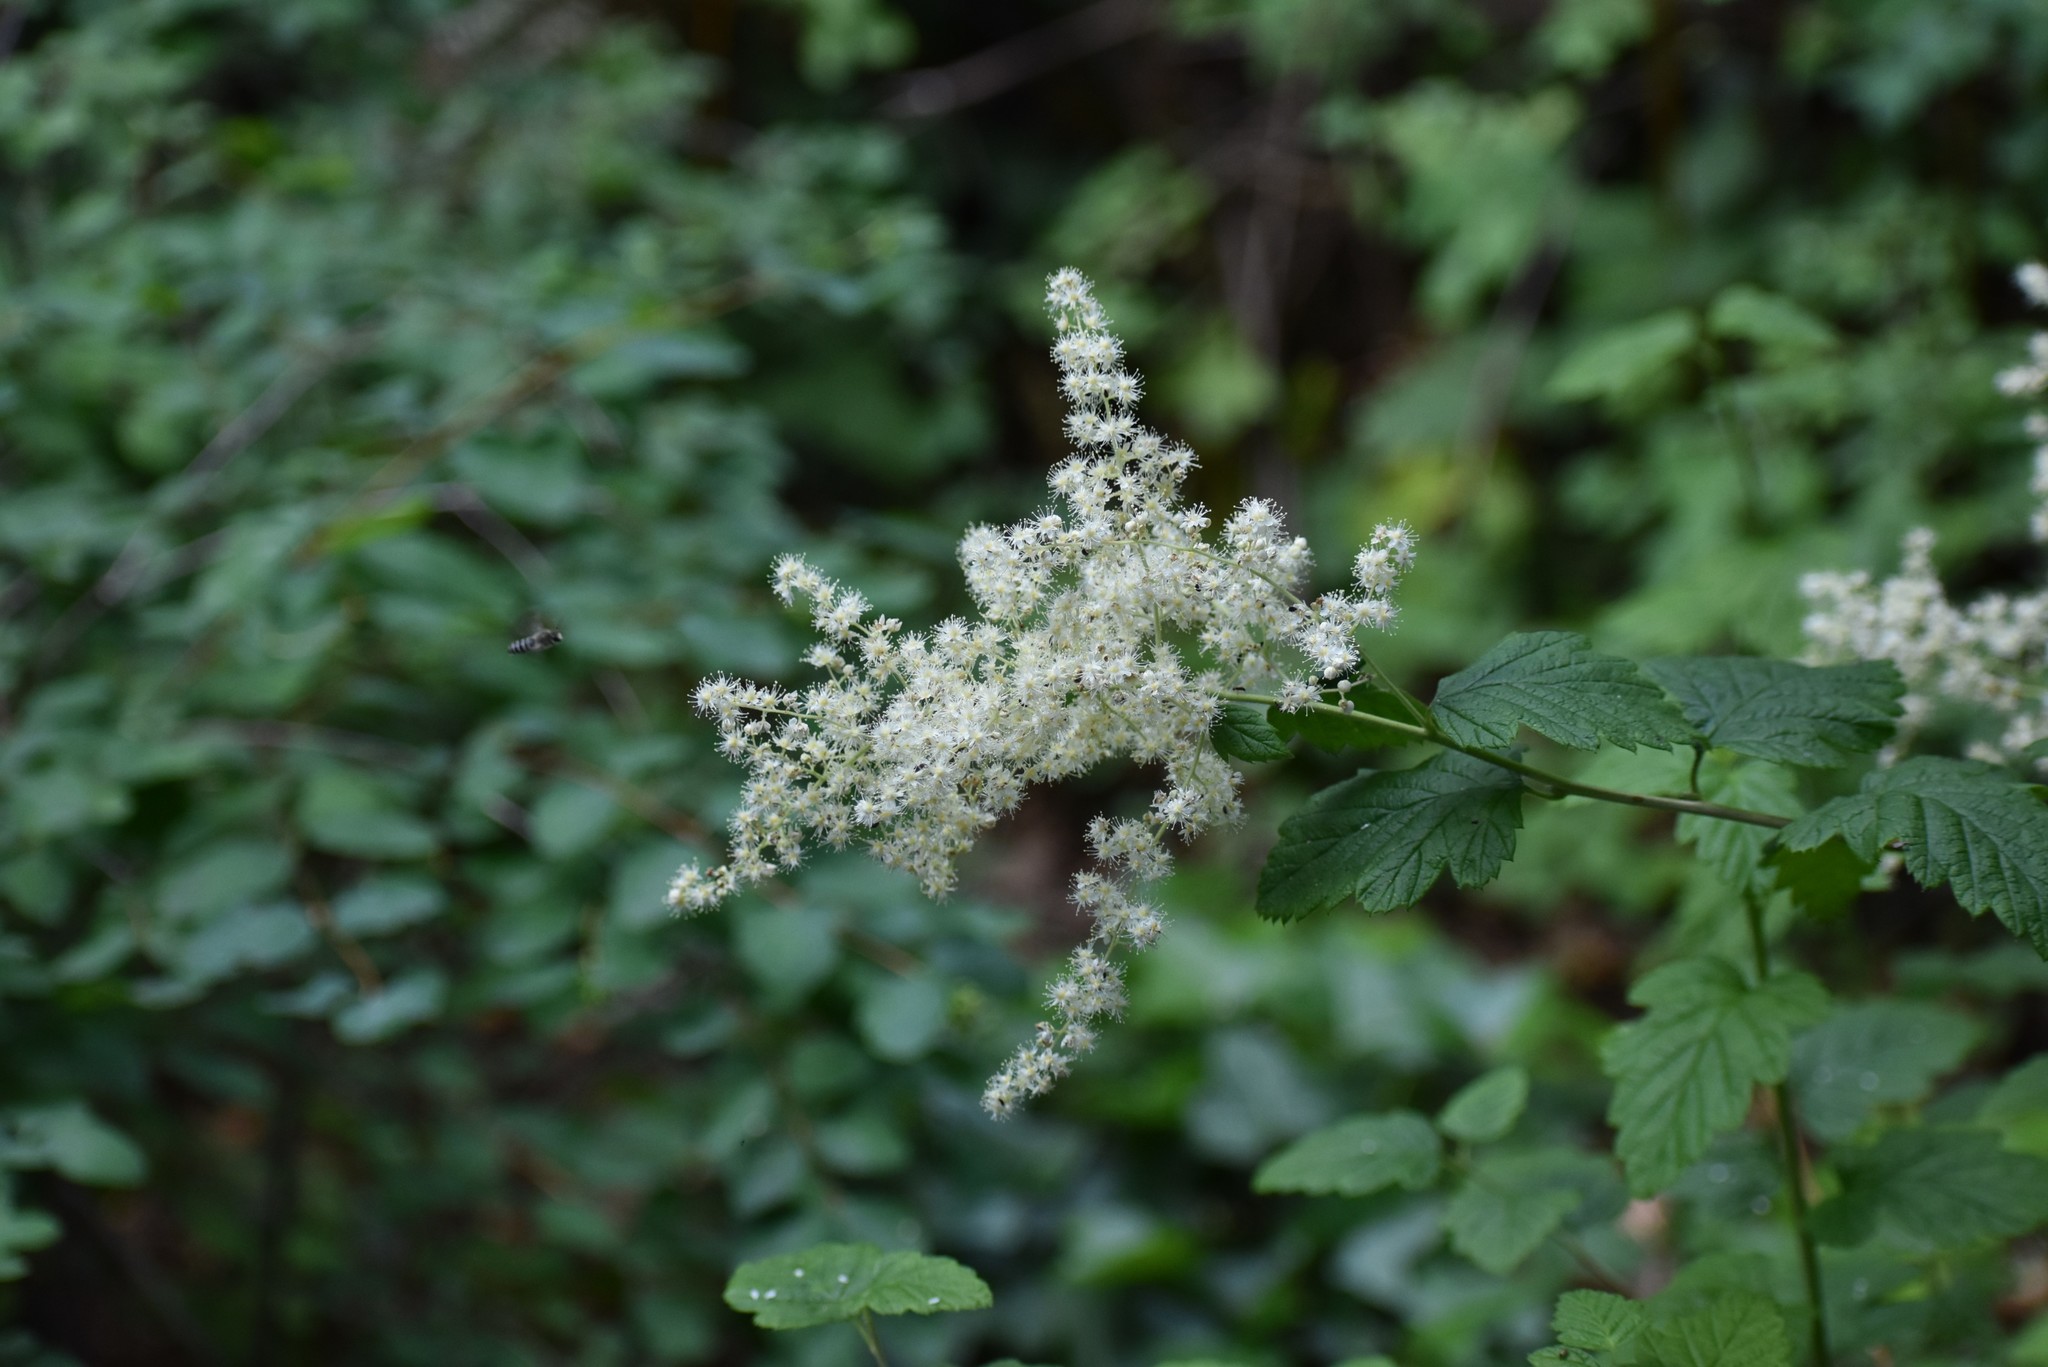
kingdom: Plantae
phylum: Tracheophyta
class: Magnoliopsida
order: Rosales
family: Rosaceae
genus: Holodiscus
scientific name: Holodiscus discolor
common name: Oceanspray
